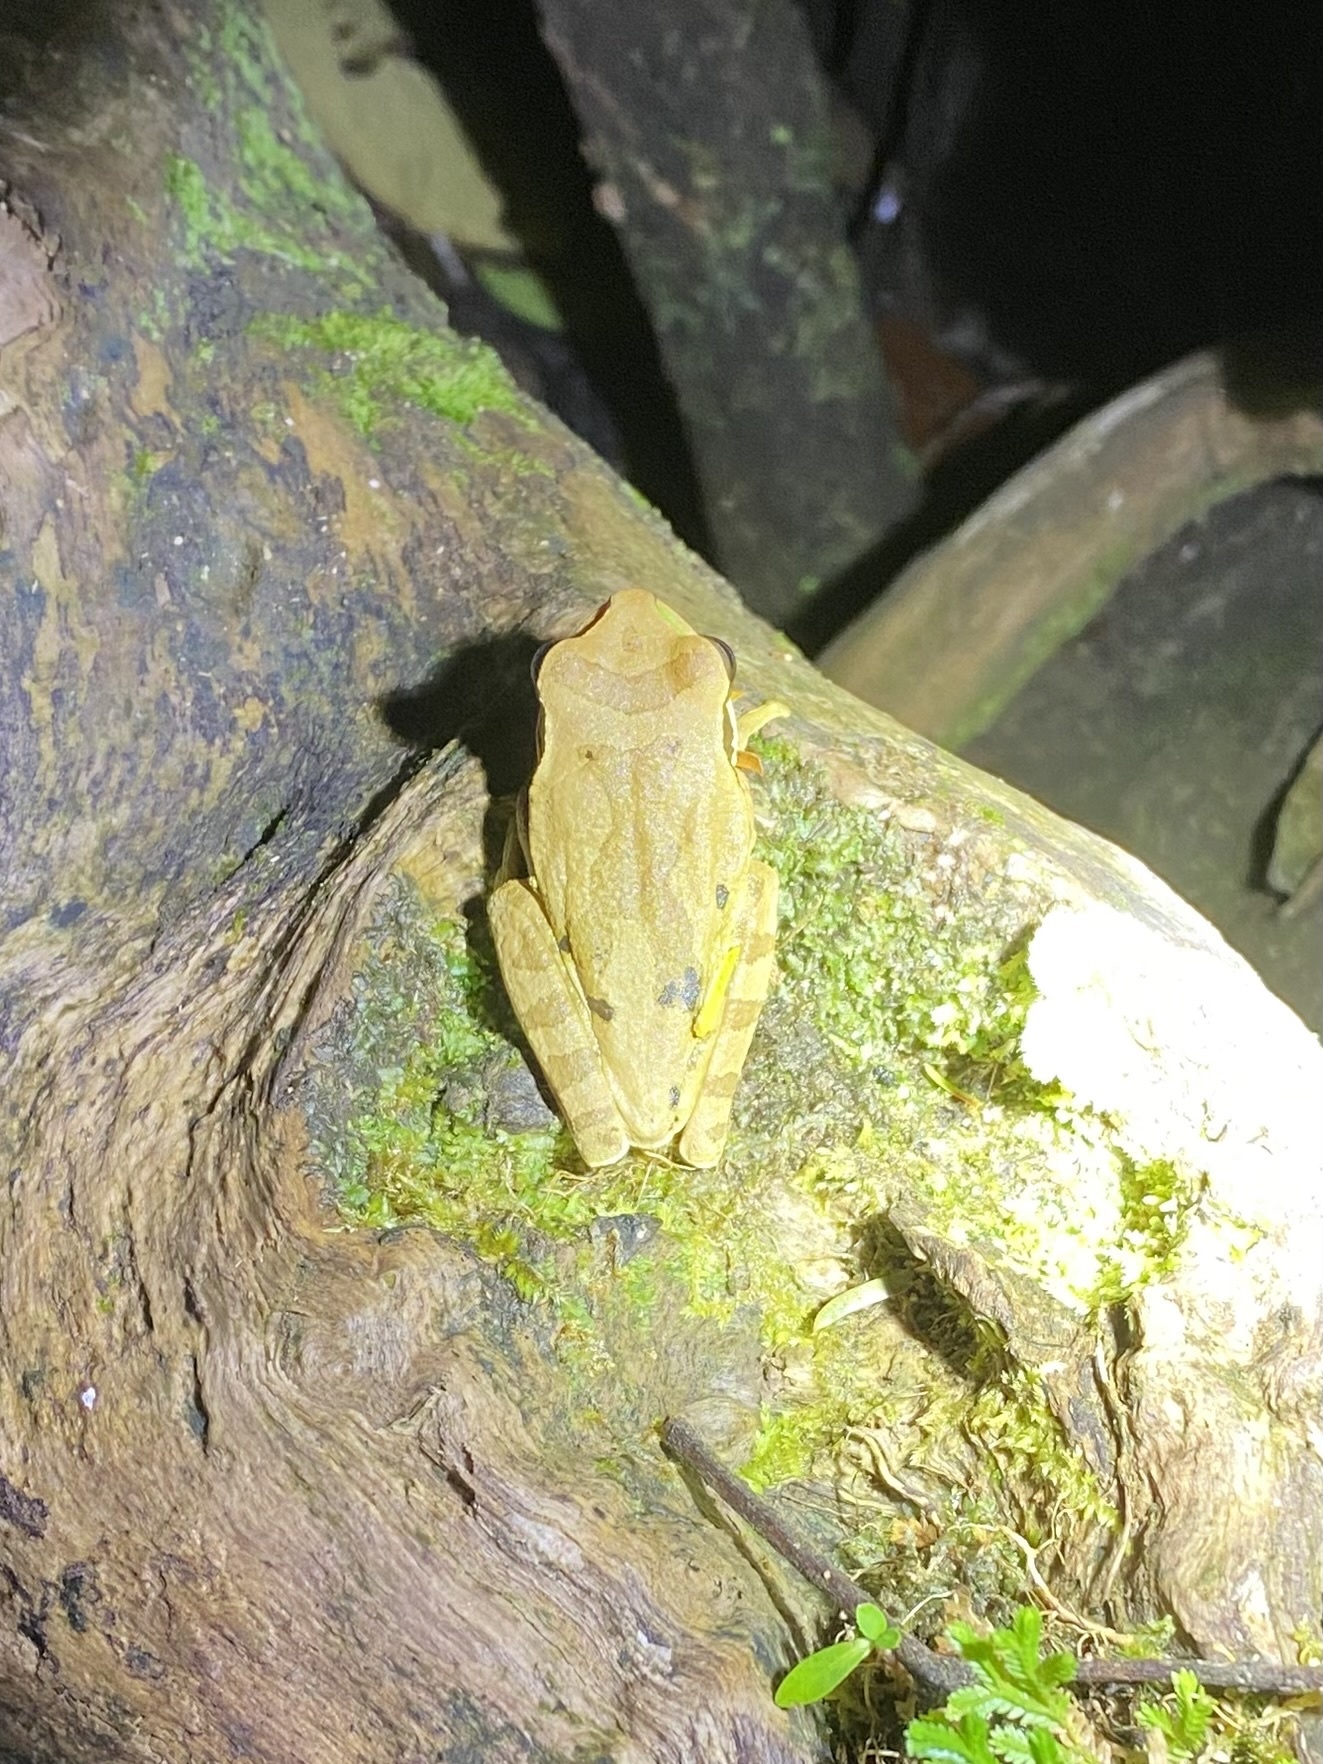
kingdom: Animalia
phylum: Chordata
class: Amphibia
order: Anura
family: Bufonidae
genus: Rhaebo
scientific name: Rhaebo haematiticus
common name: Truando toad
